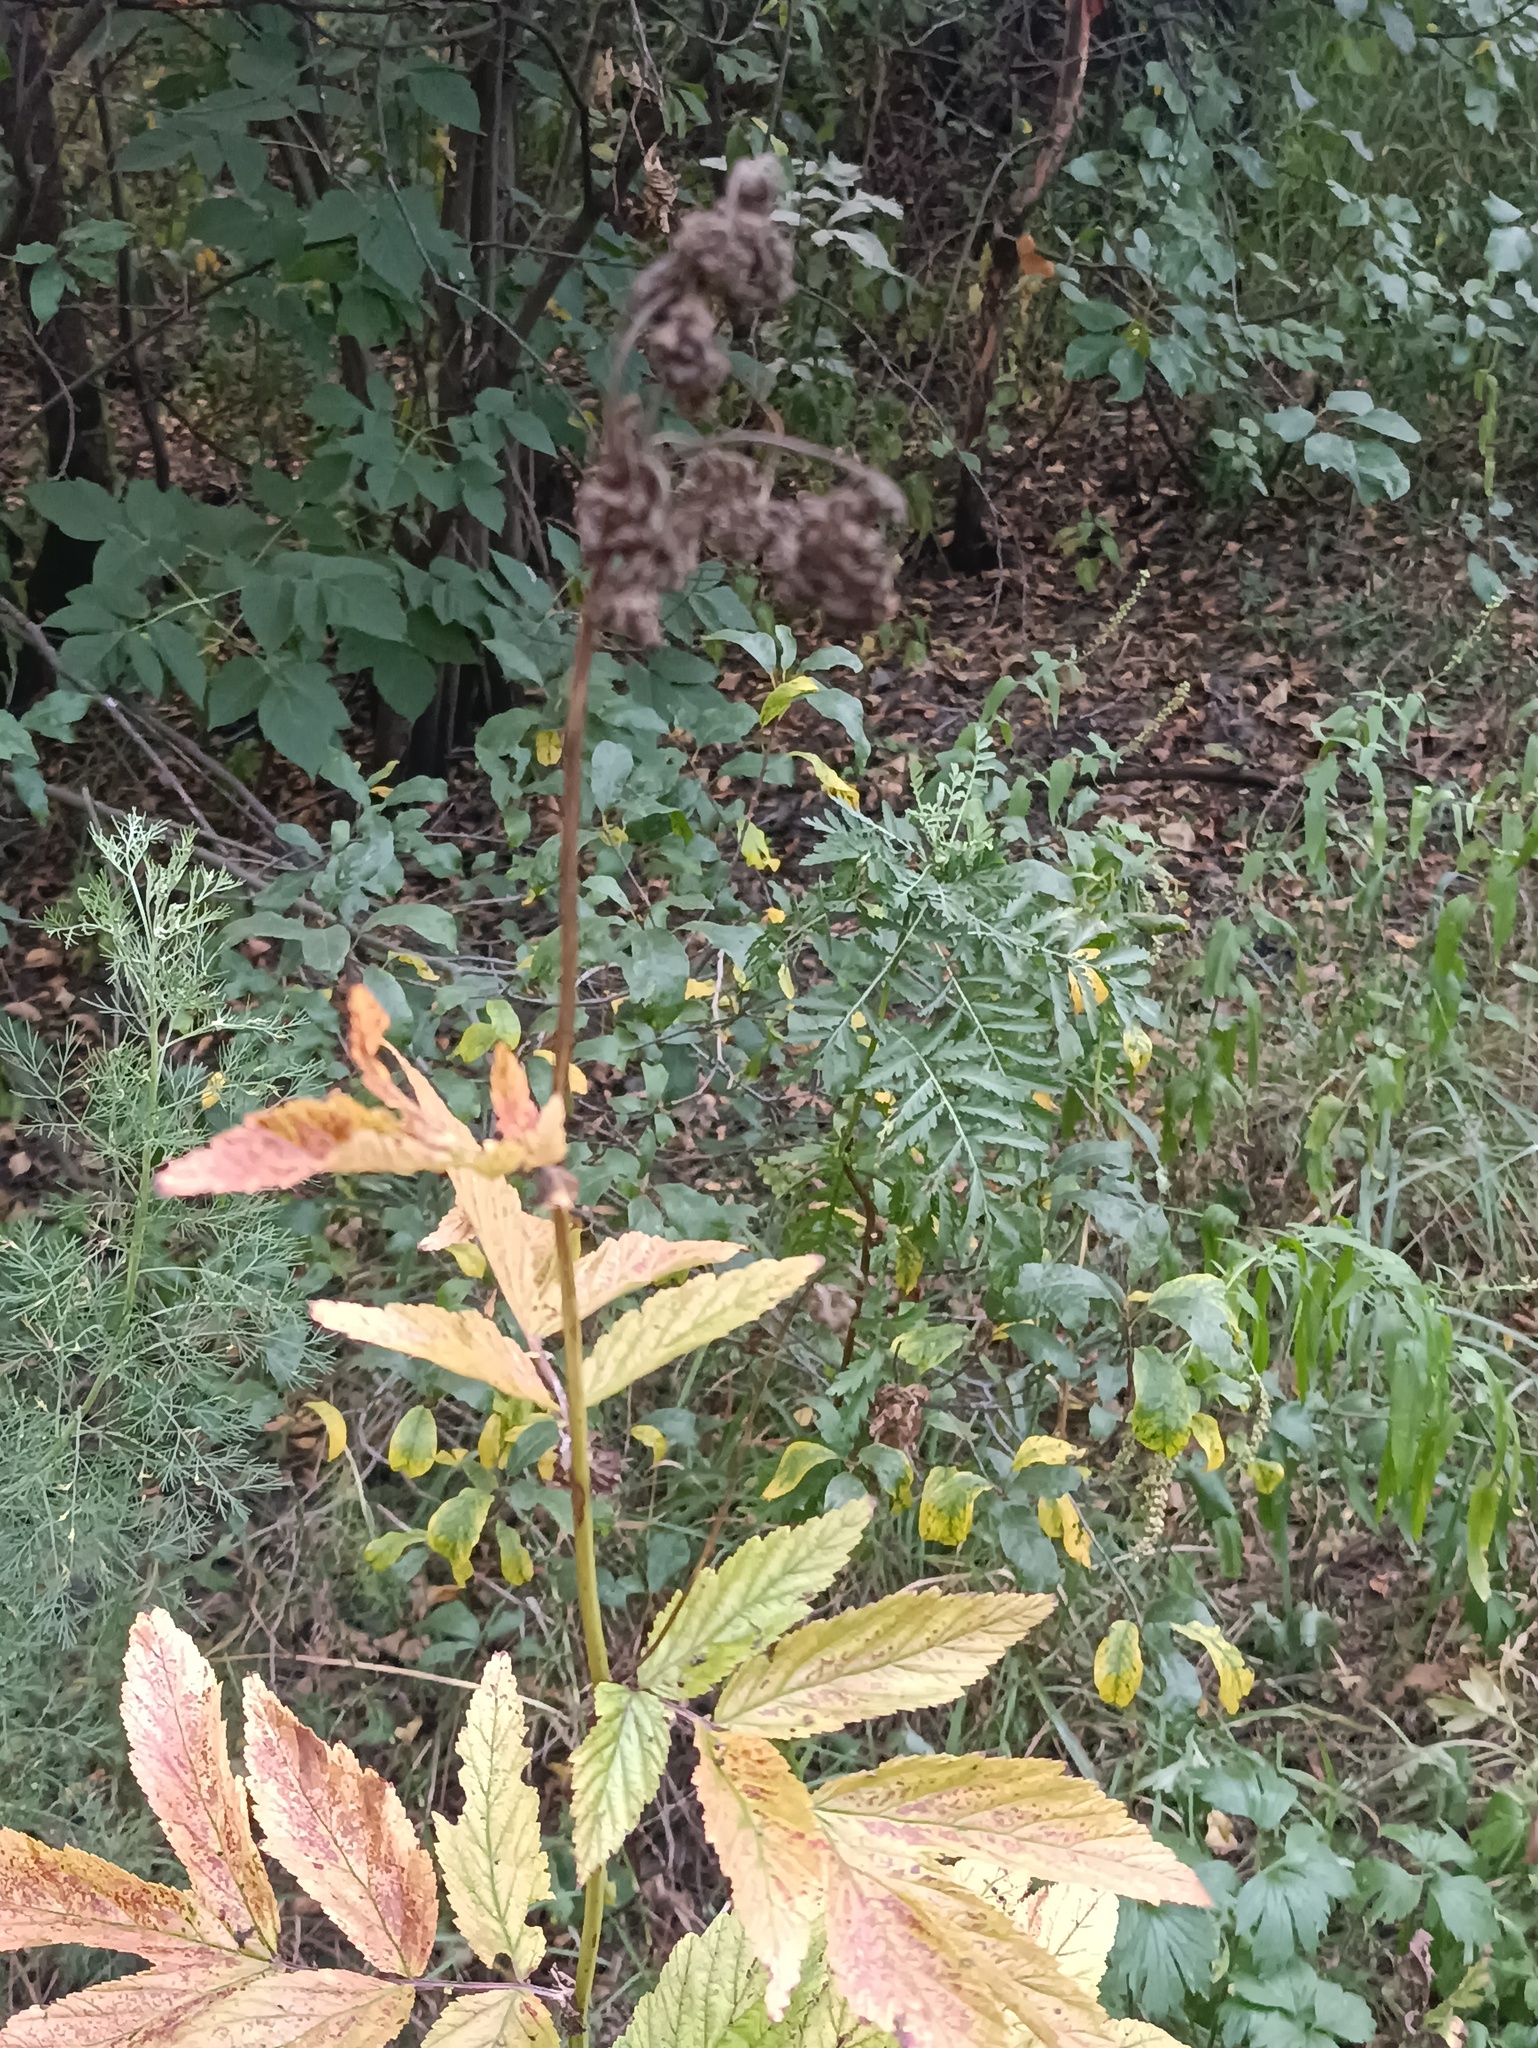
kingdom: Plantae
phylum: Tracheophyta
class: Magnoliopsida
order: Rosales
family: Rosaceae
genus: Filipendula
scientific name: Filipendula ulmaria
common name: Meadowsweet
